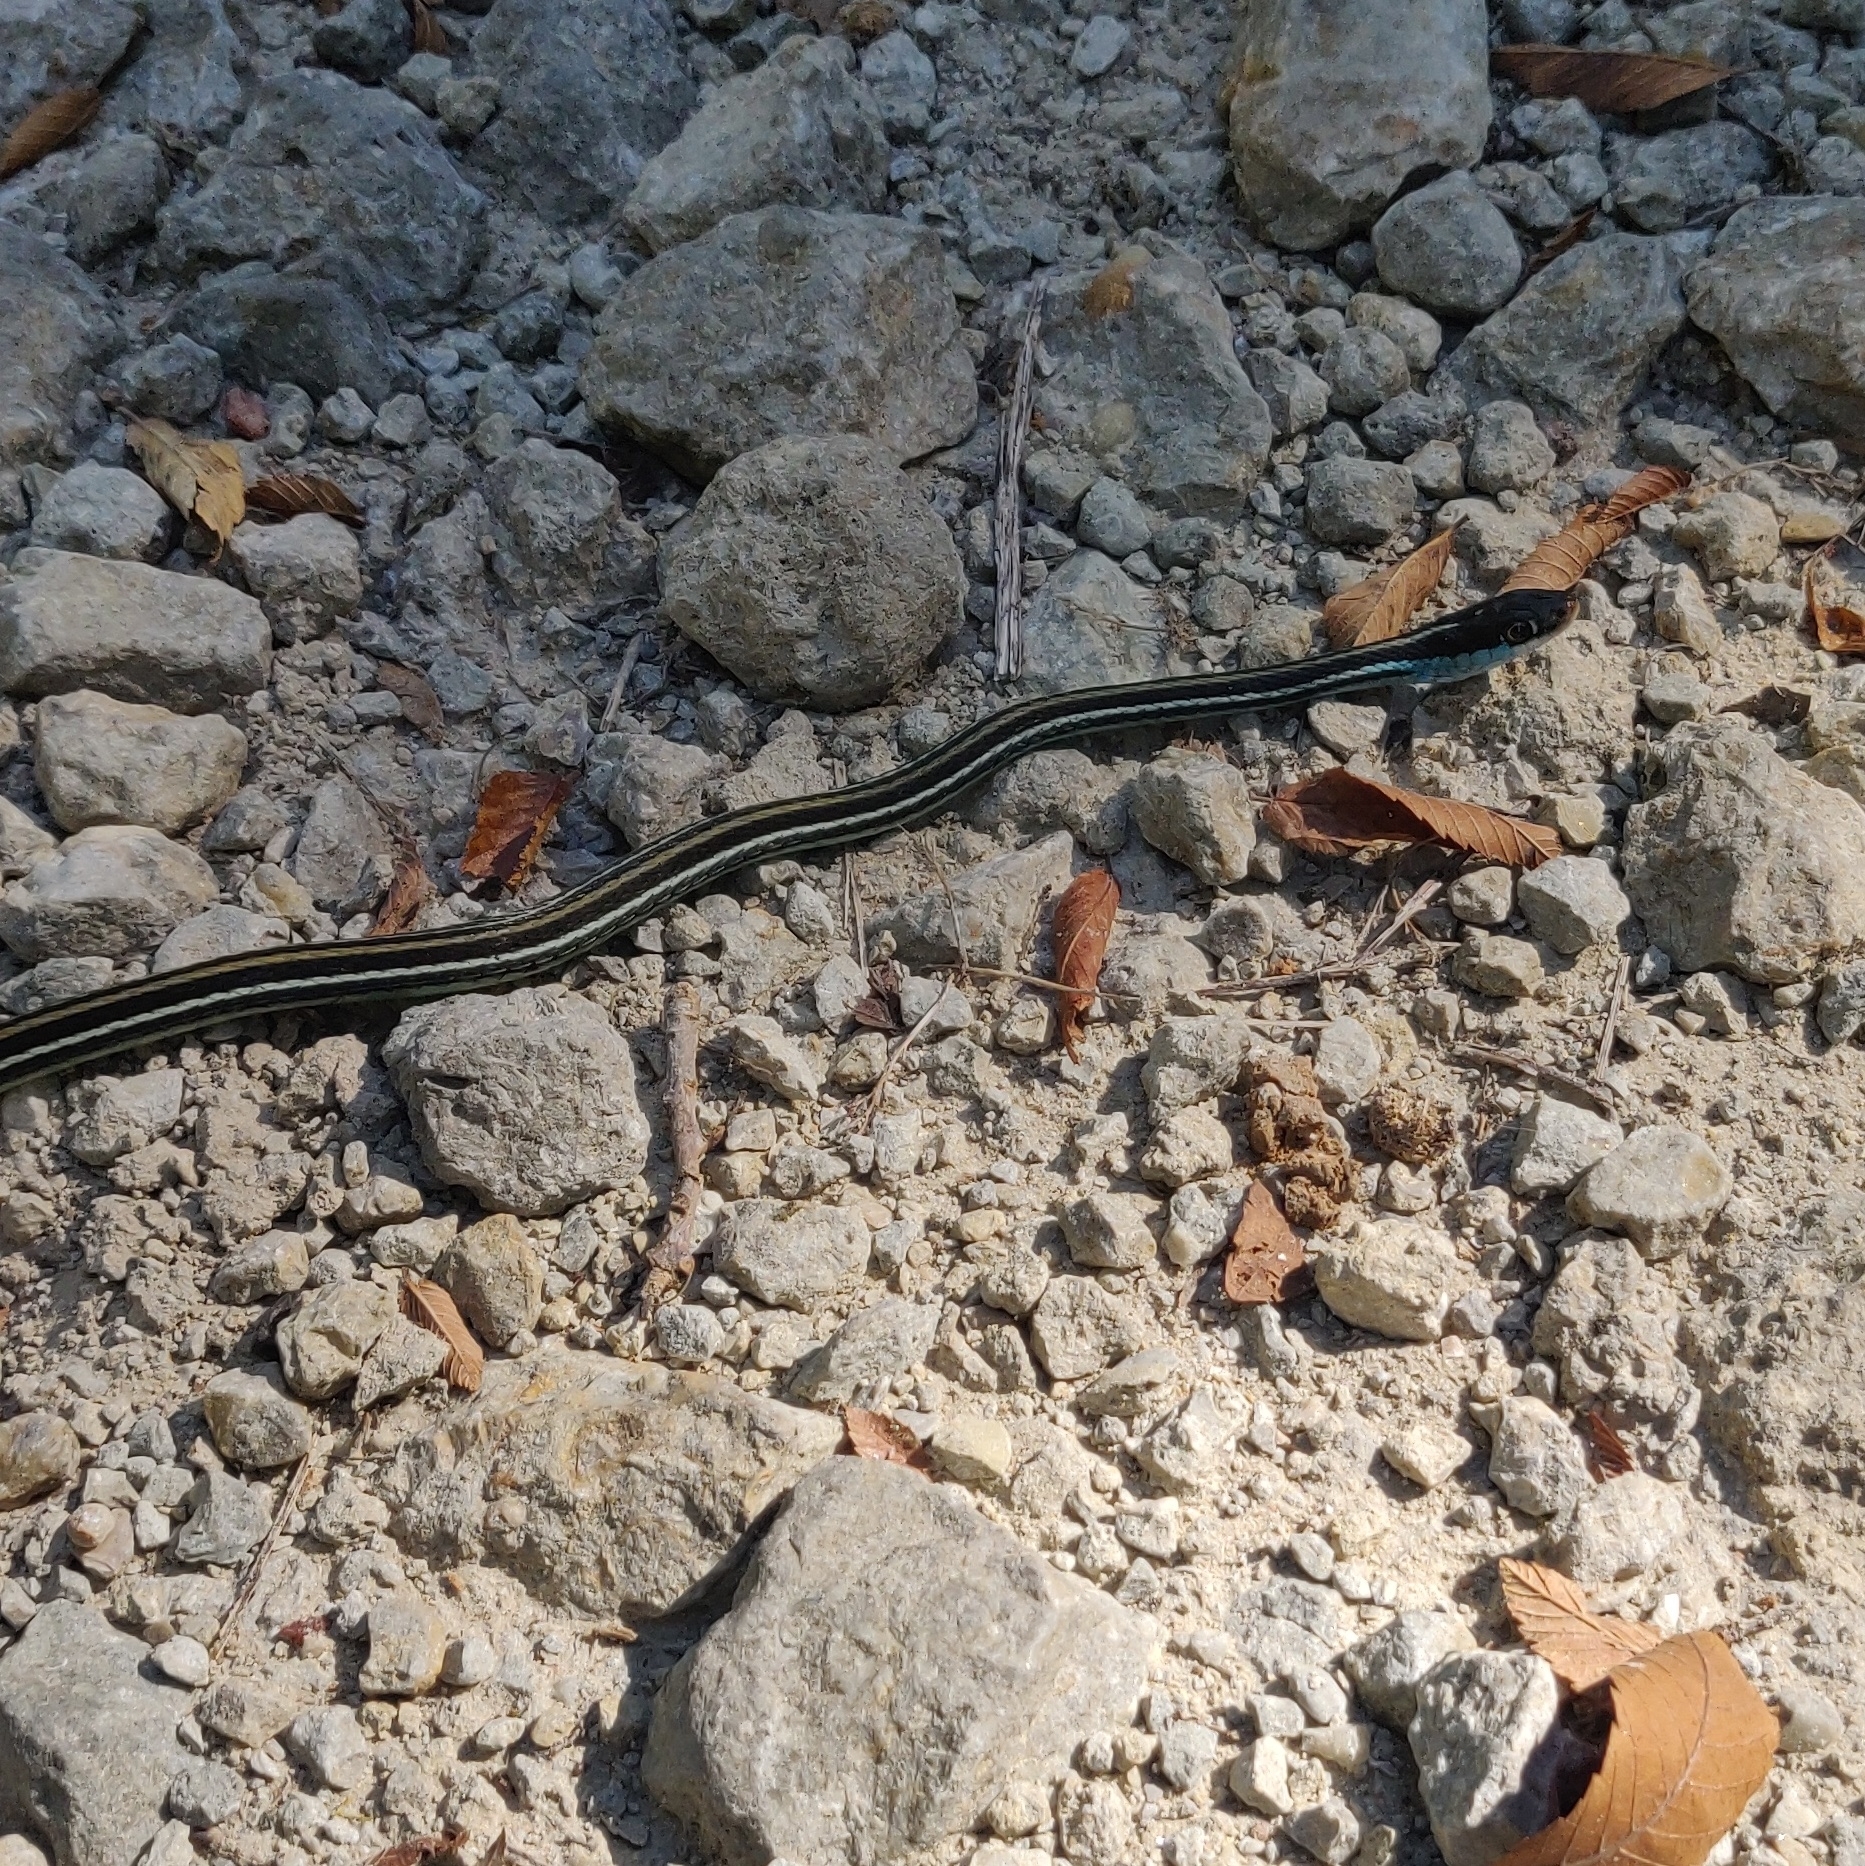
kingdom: Animalia
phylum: Chordata
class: Squamata
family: Colubridae
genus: Thamnophis
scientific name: Thamnophis proximus
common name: Western ribbon snake
